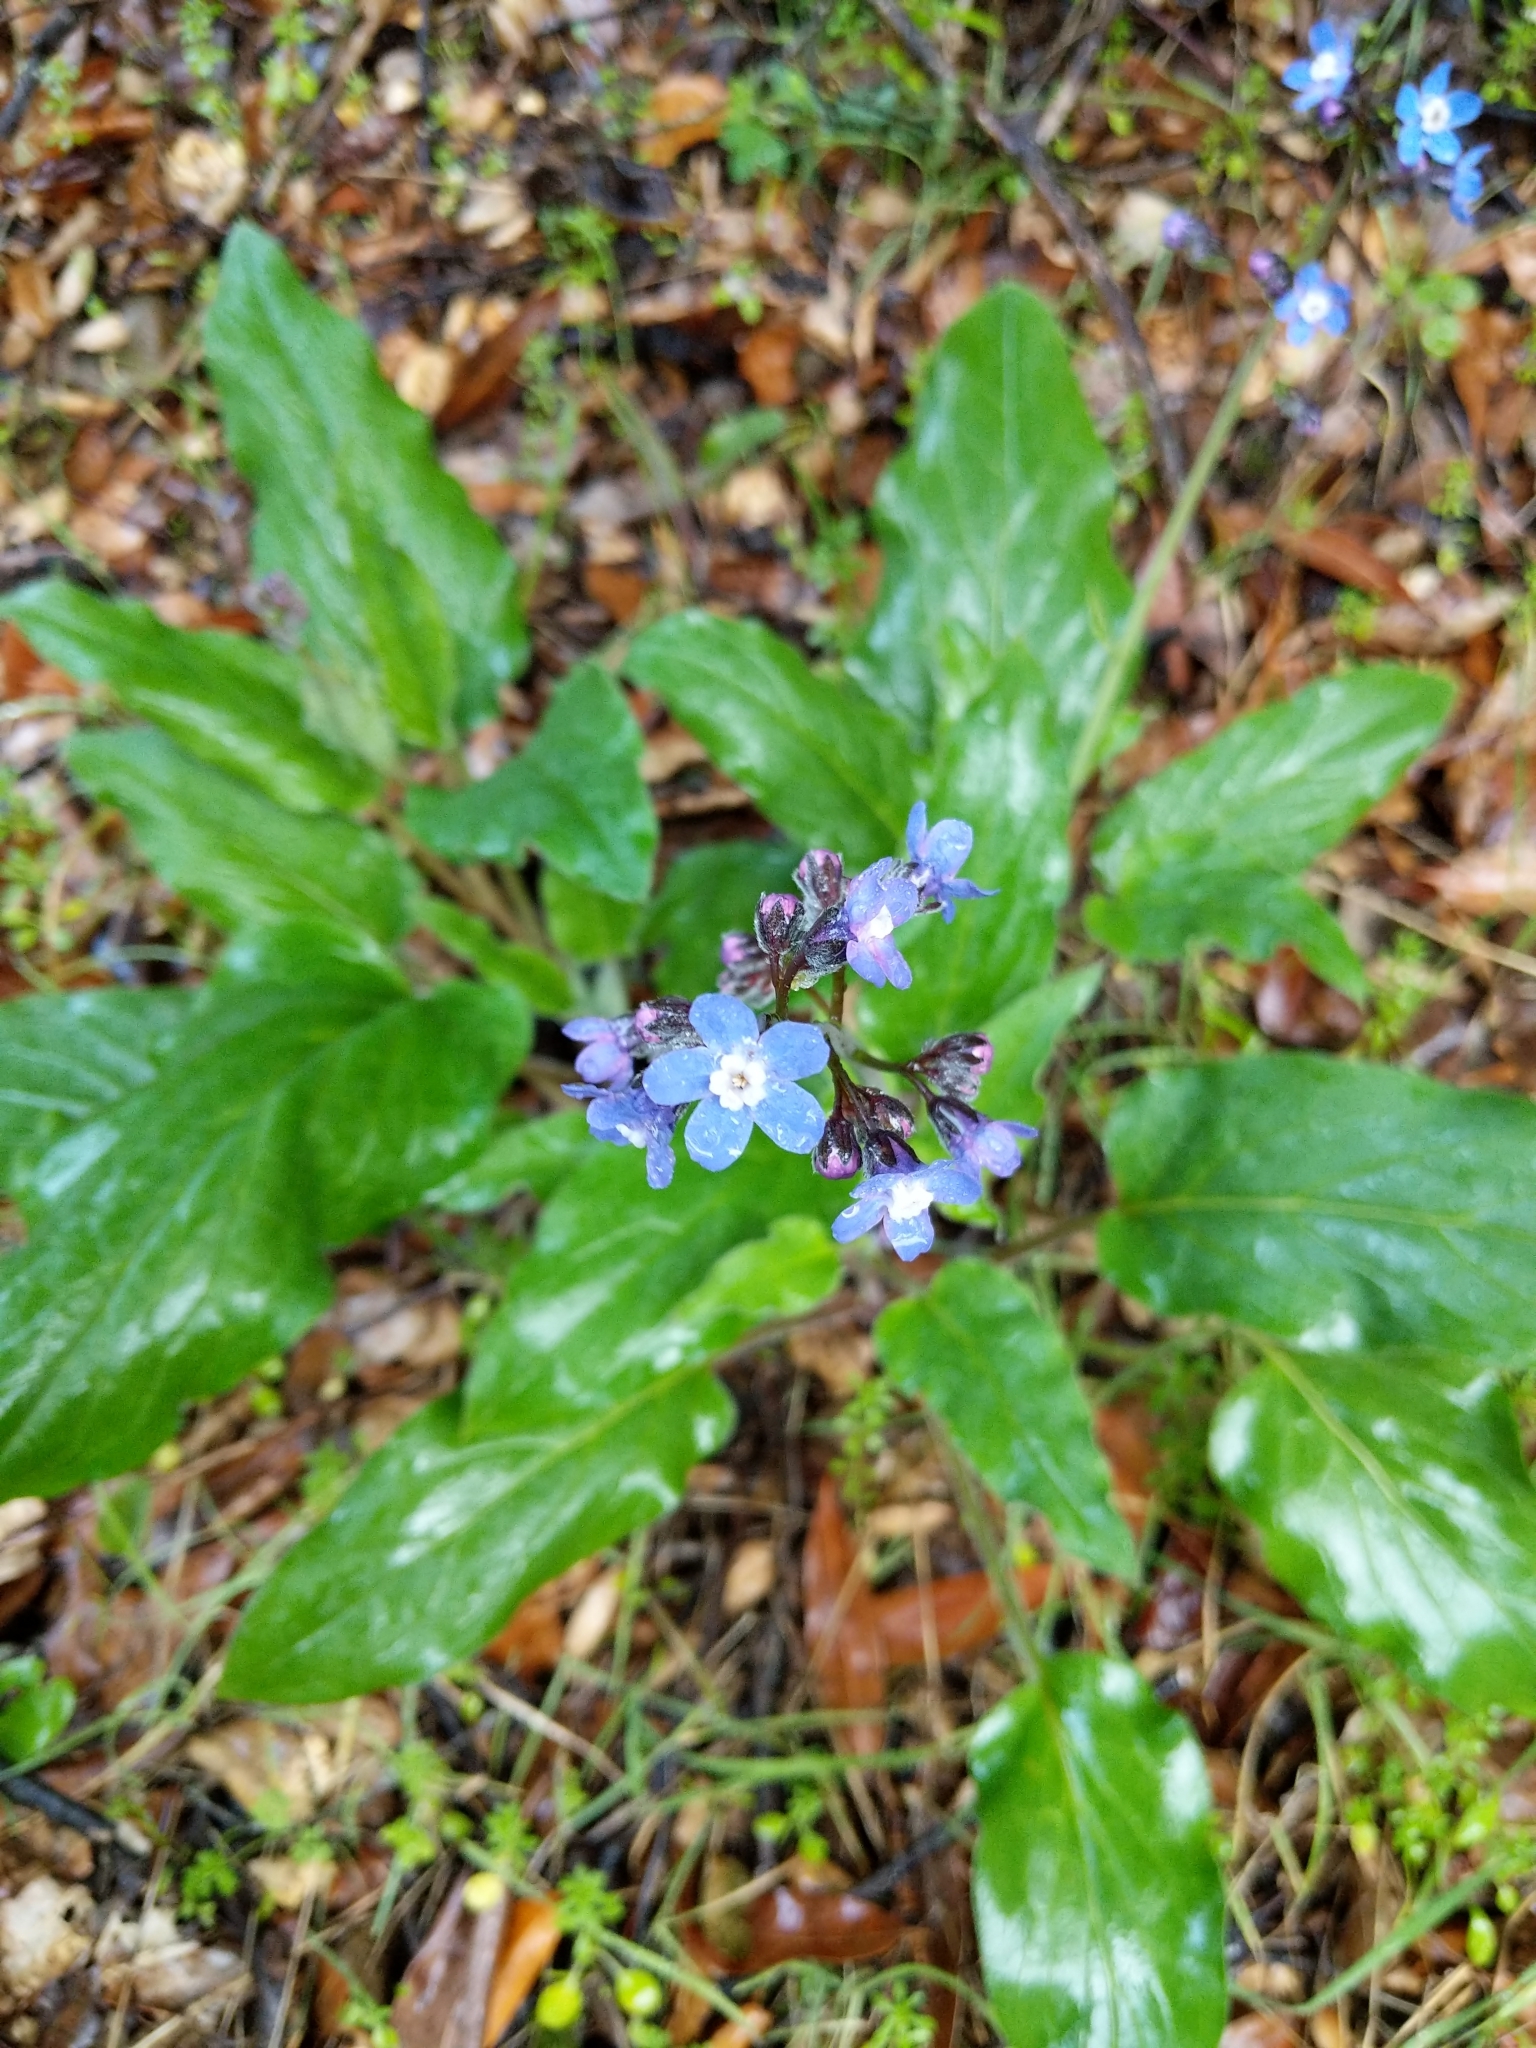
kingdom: Plantae
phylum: Tracheophyta
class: Magnoliopsida
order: Boraginales
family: Boraginaceae
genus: Adelinia
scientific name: Adelinia grande
